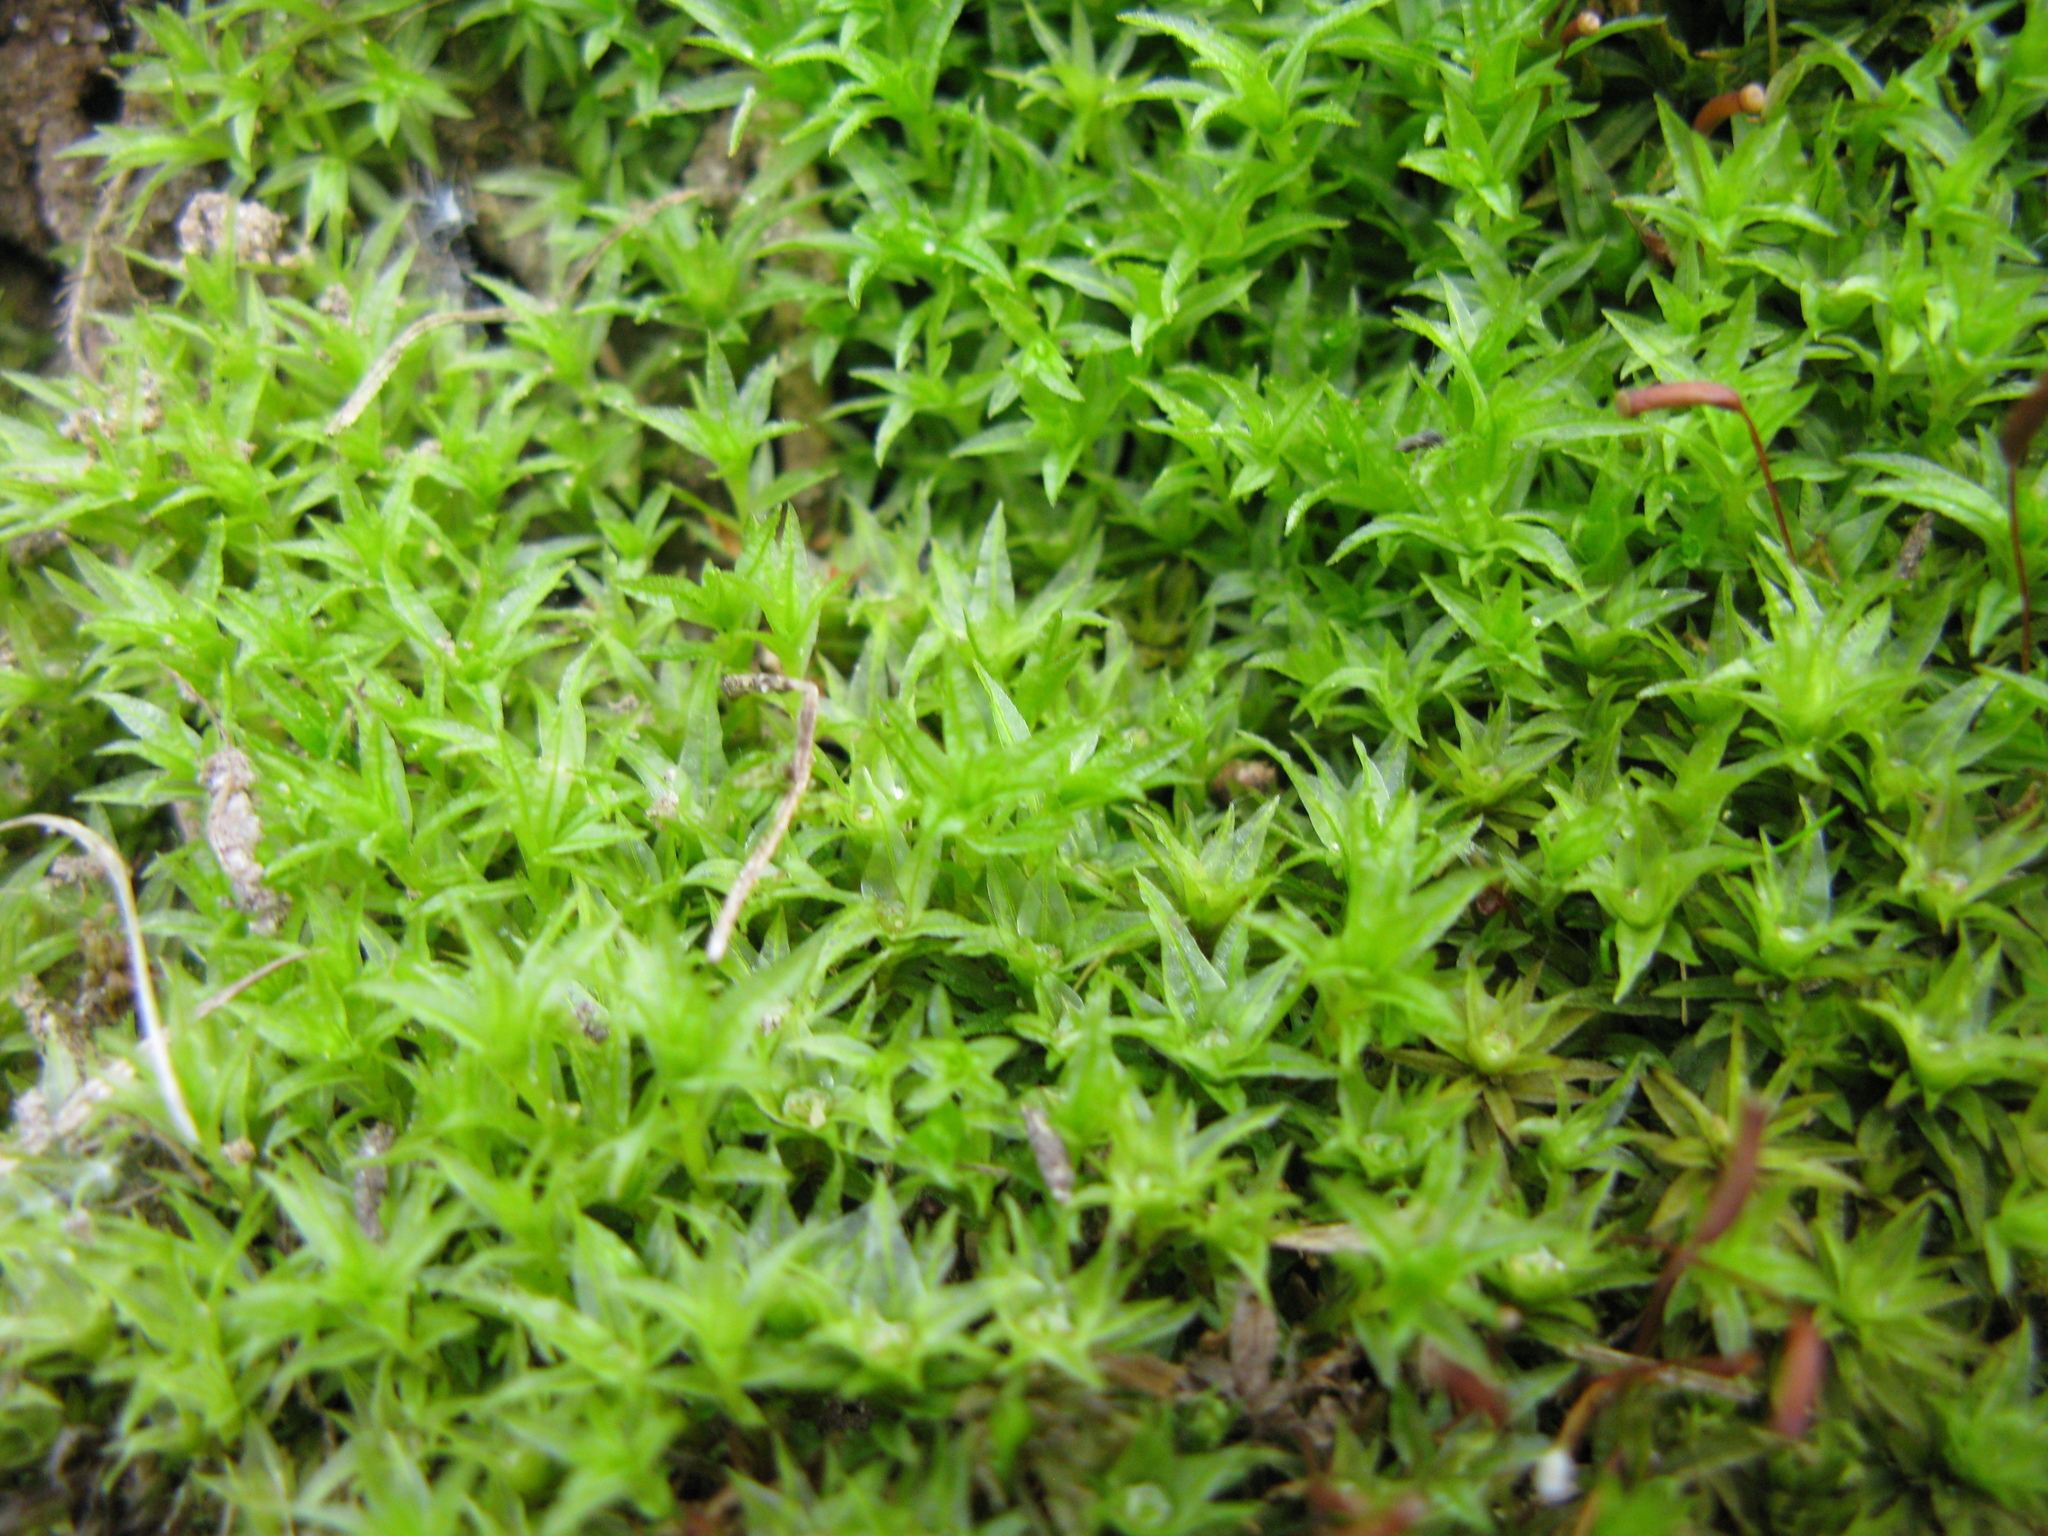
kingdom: Plantae
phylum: Bryophyta
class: Polytrichopsida
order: Polytrichales
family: Polytrichaceae
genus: Atrichum
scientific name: Atrichum undulatum
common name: Common smoothcap
